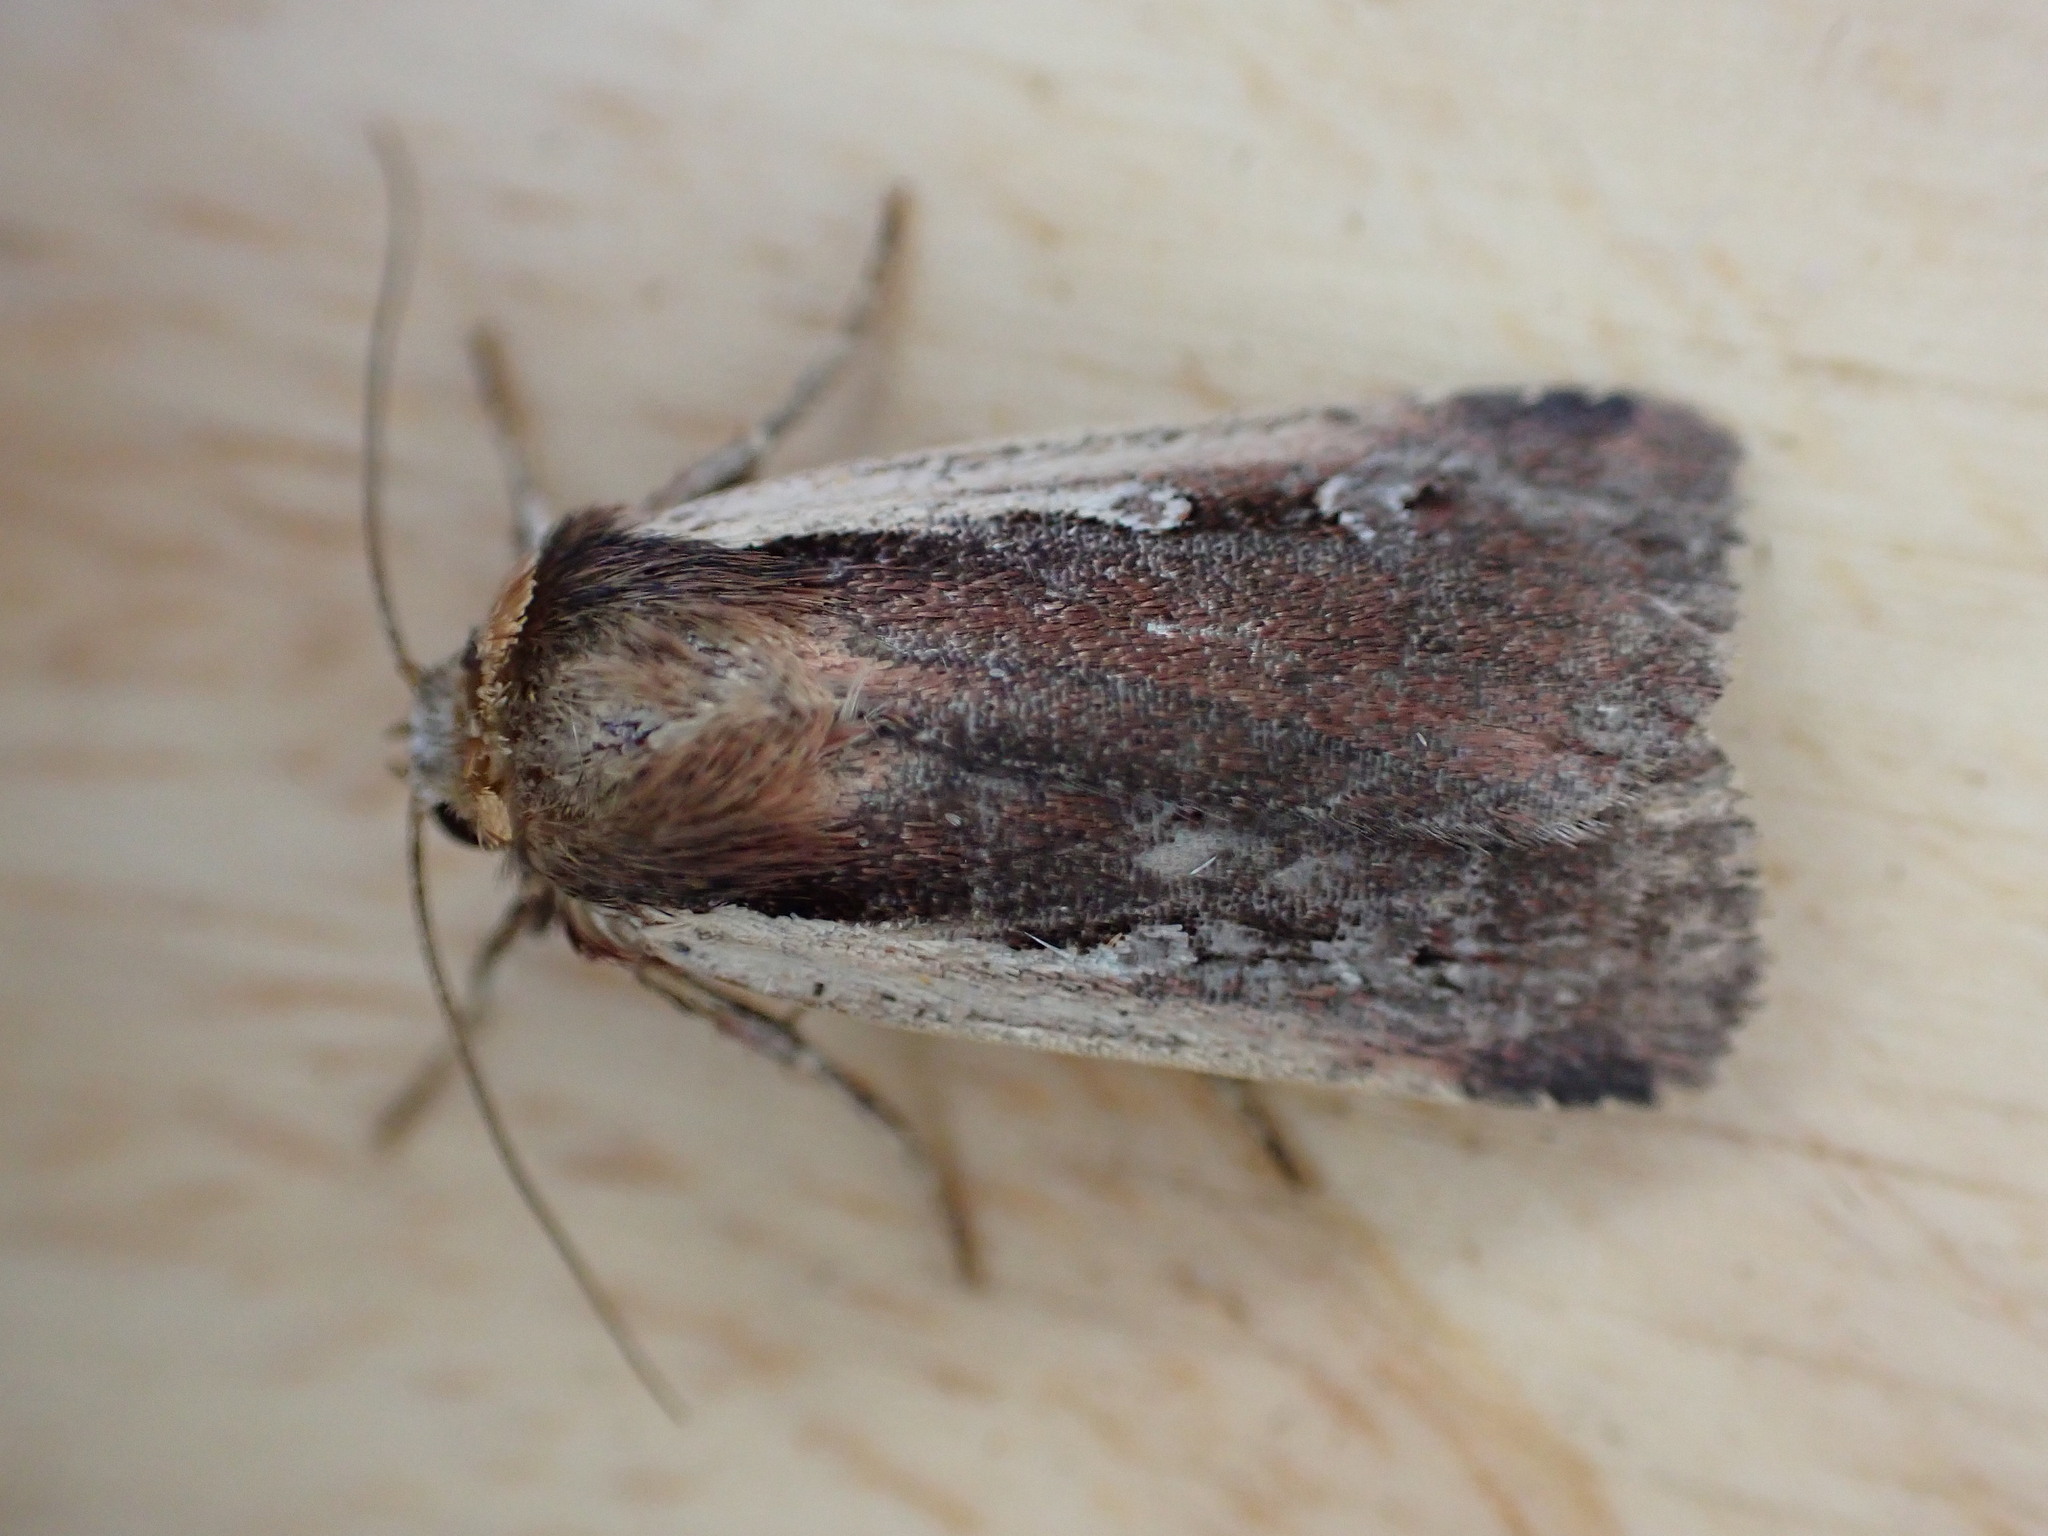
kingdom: Animalia
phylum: Arthropoda
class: Insecta
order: Lepidoptera
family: Noctuidae
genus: Ochropleura
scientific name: Ochropleura plecta
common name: Flame shoulder
